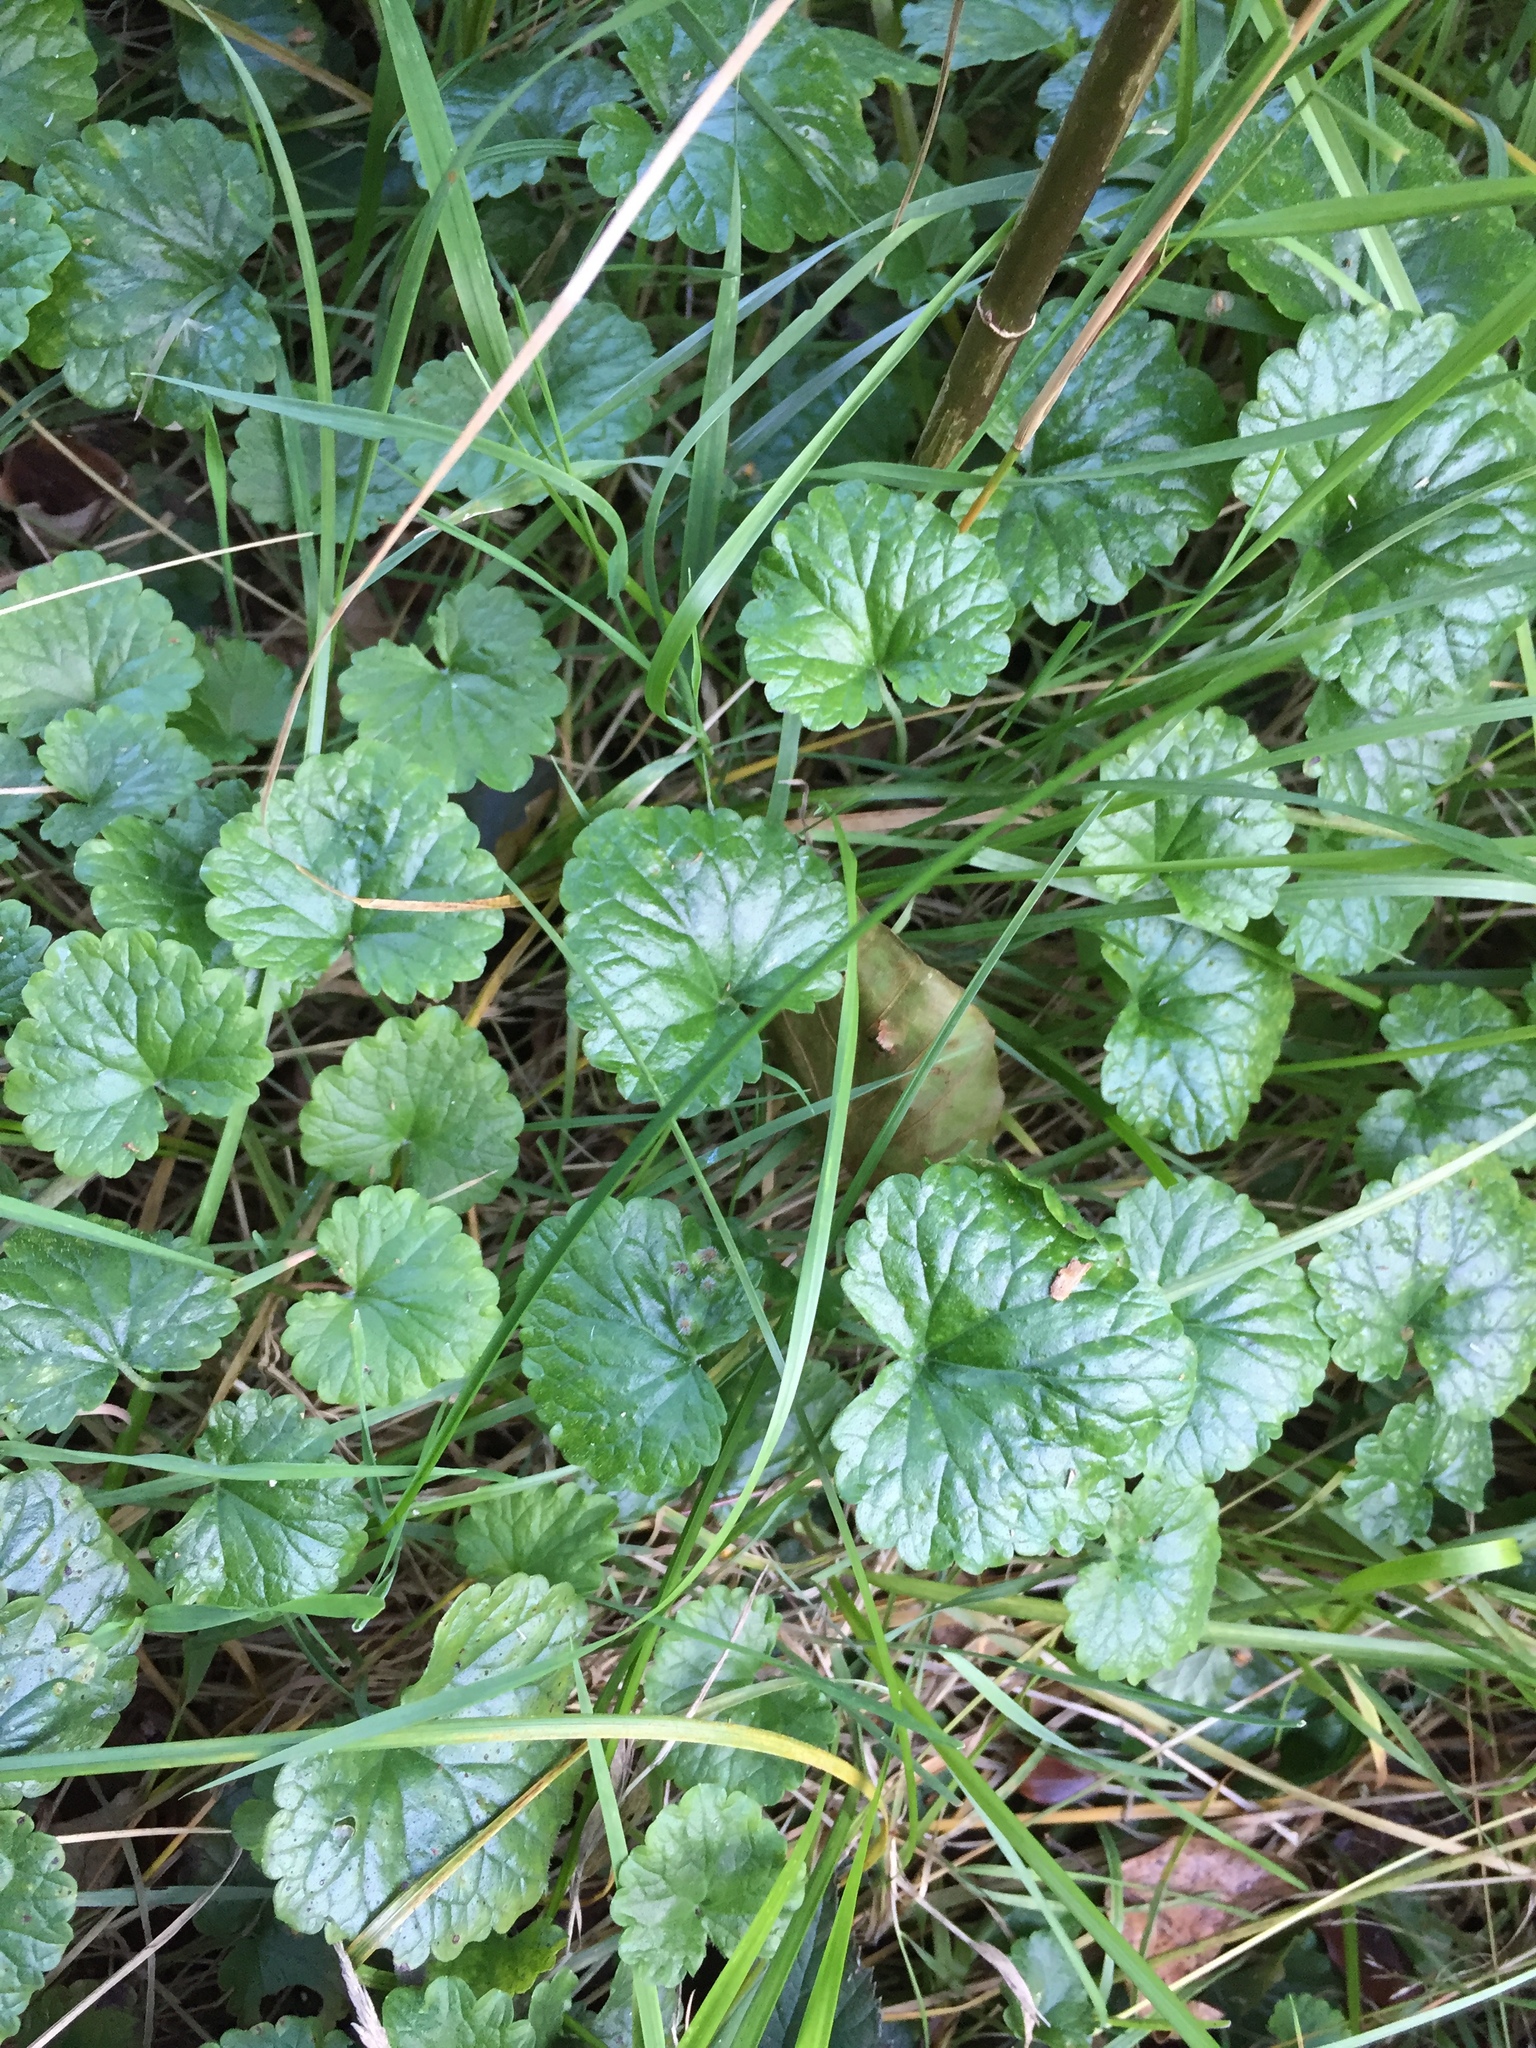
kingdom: Plantae
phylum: Tracheophyta
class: Magnoliopsida
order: Lamiales
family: Lamiaceae
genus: Glechoma
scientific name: Glechoma hederacea
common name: Ground ivy
